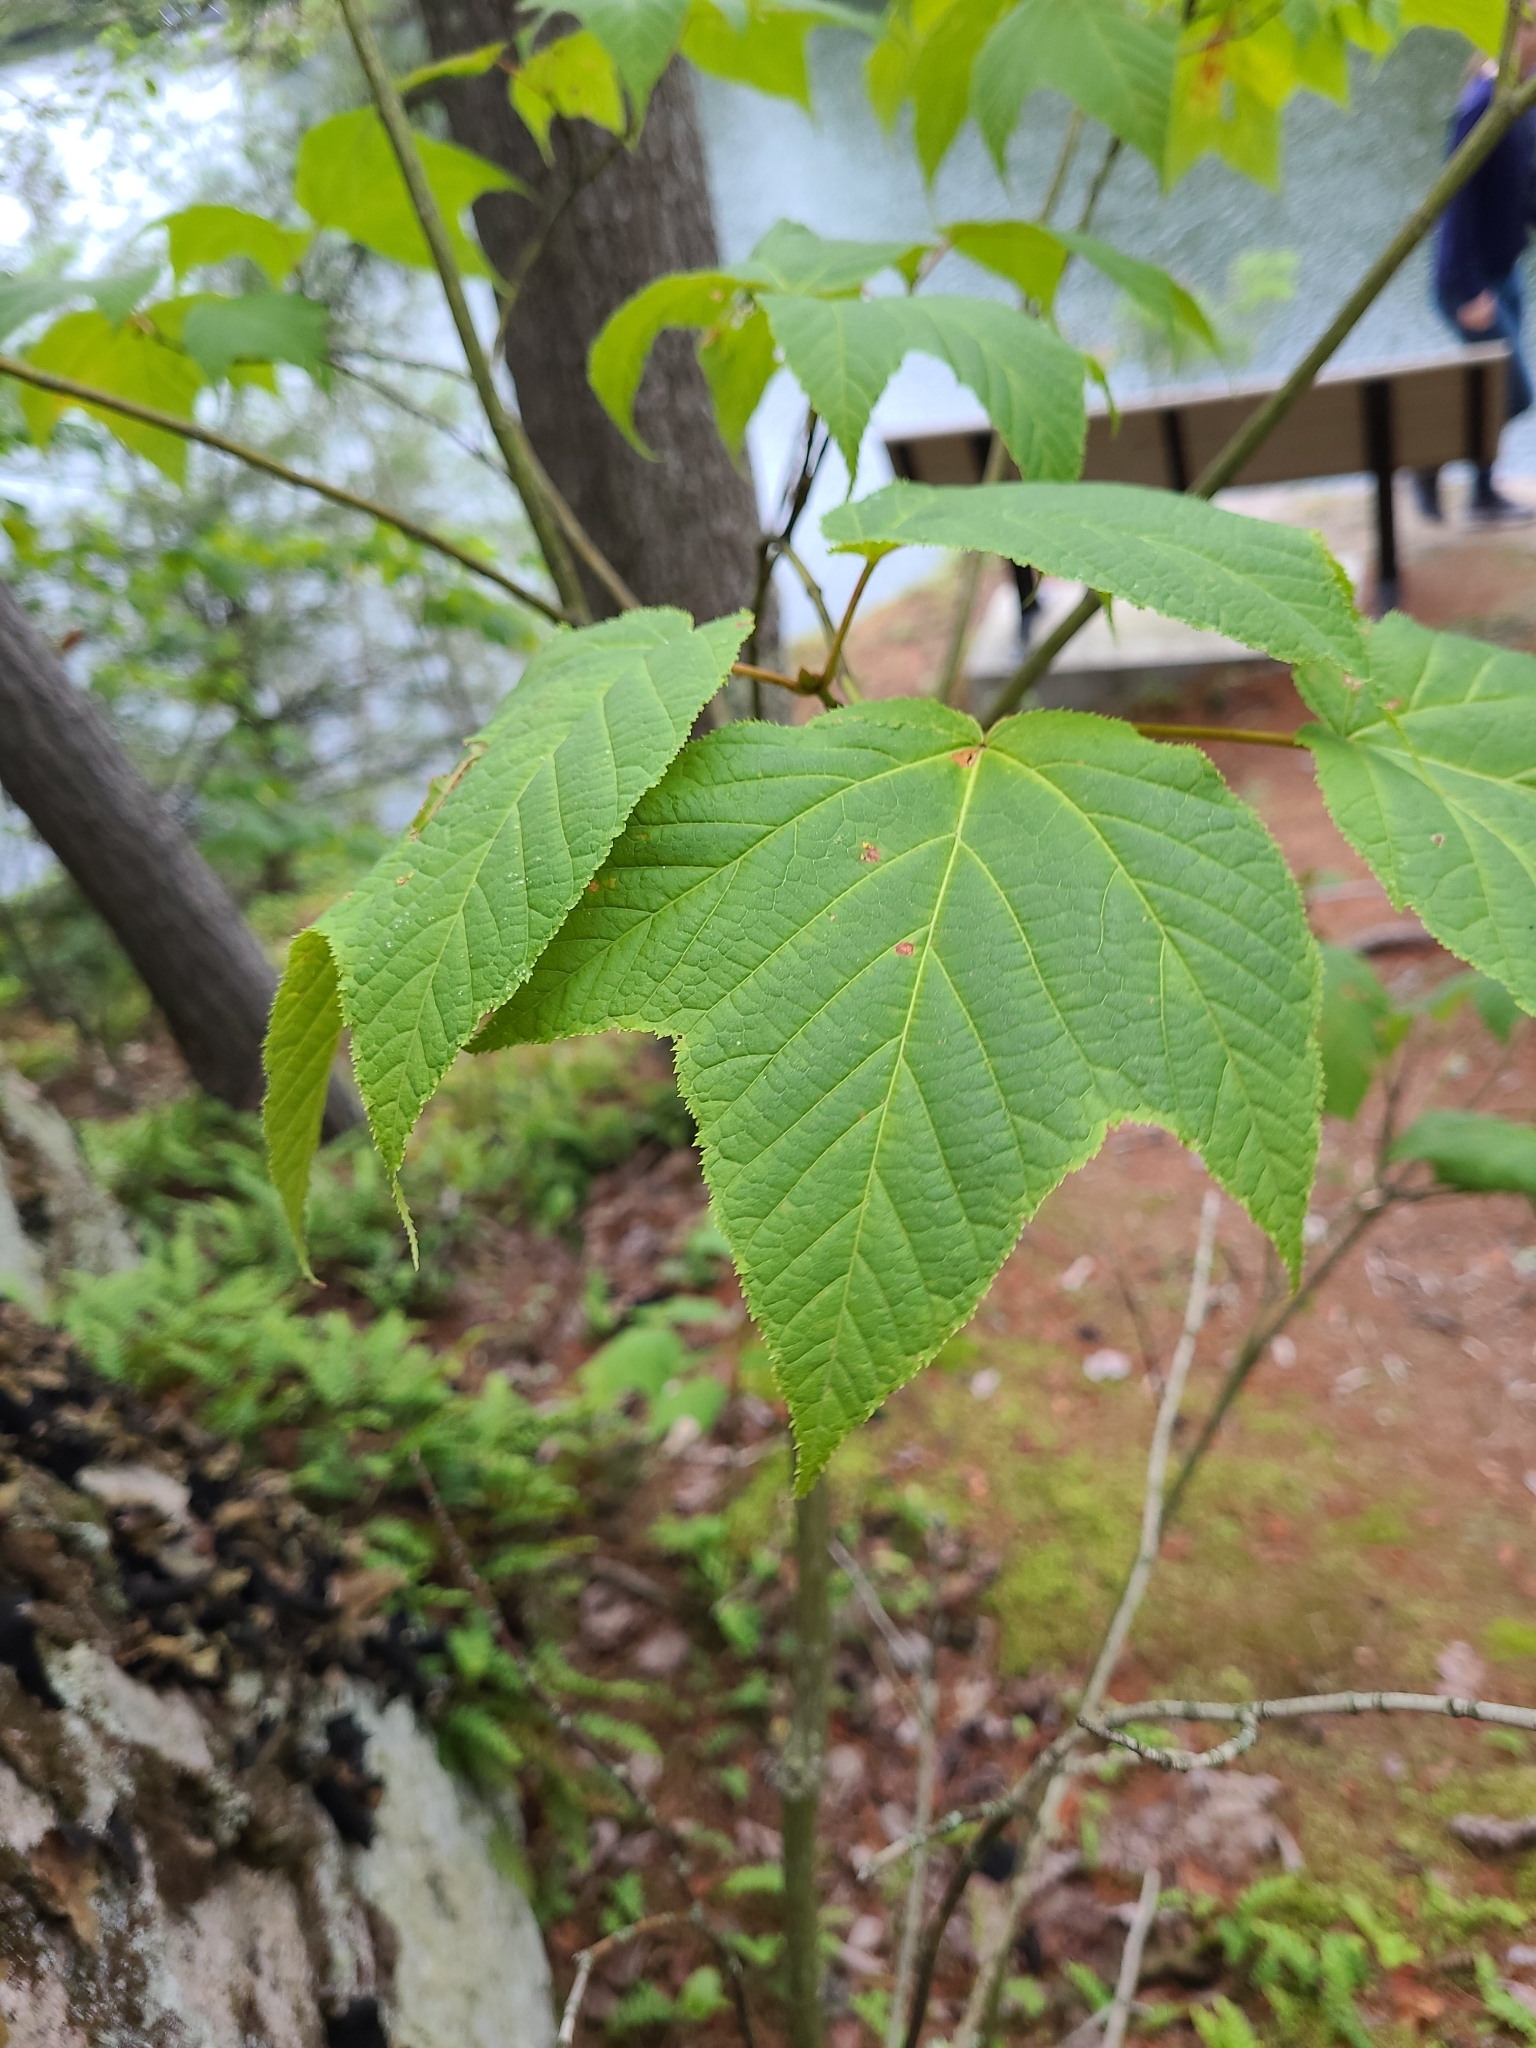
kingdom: Plantae
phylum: Tracheophyta
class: Magnoliopsida
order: Sapindales
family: Sapindaceae
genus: Acer
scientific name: Acer pensylvanicum
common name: Moosewood
